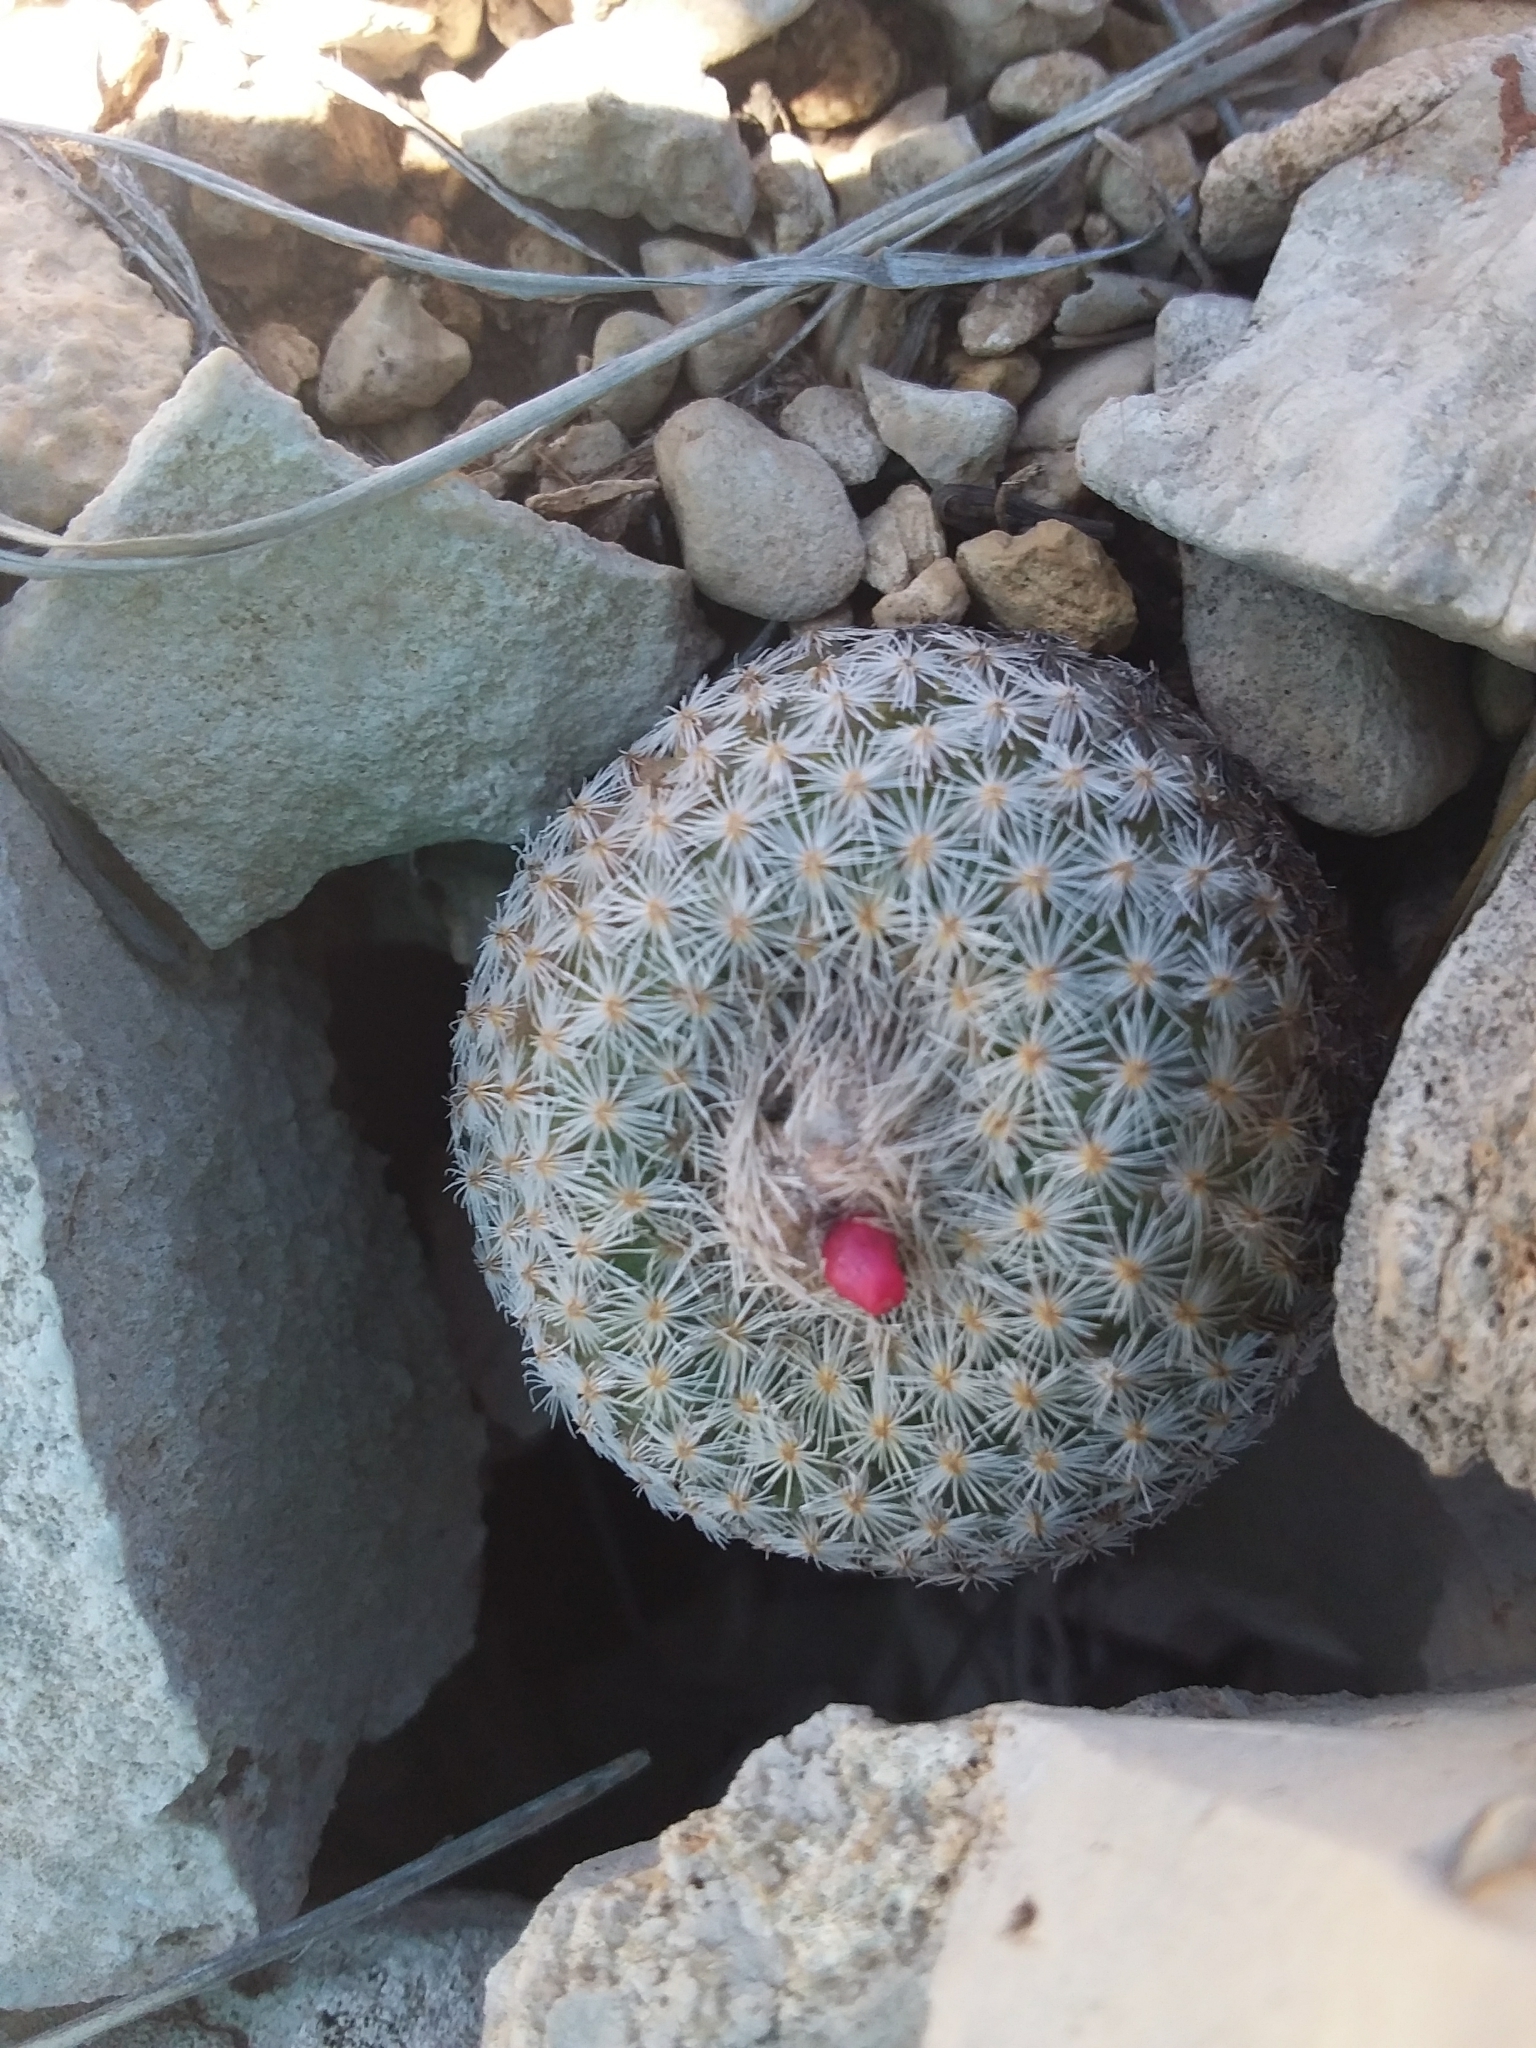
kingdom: Plantae
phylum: Tracheophyta
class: Magnoliopsida
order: Caryophyllales
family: Cactaceae
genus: Epithelantha
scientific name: Epithelantha micromeris
